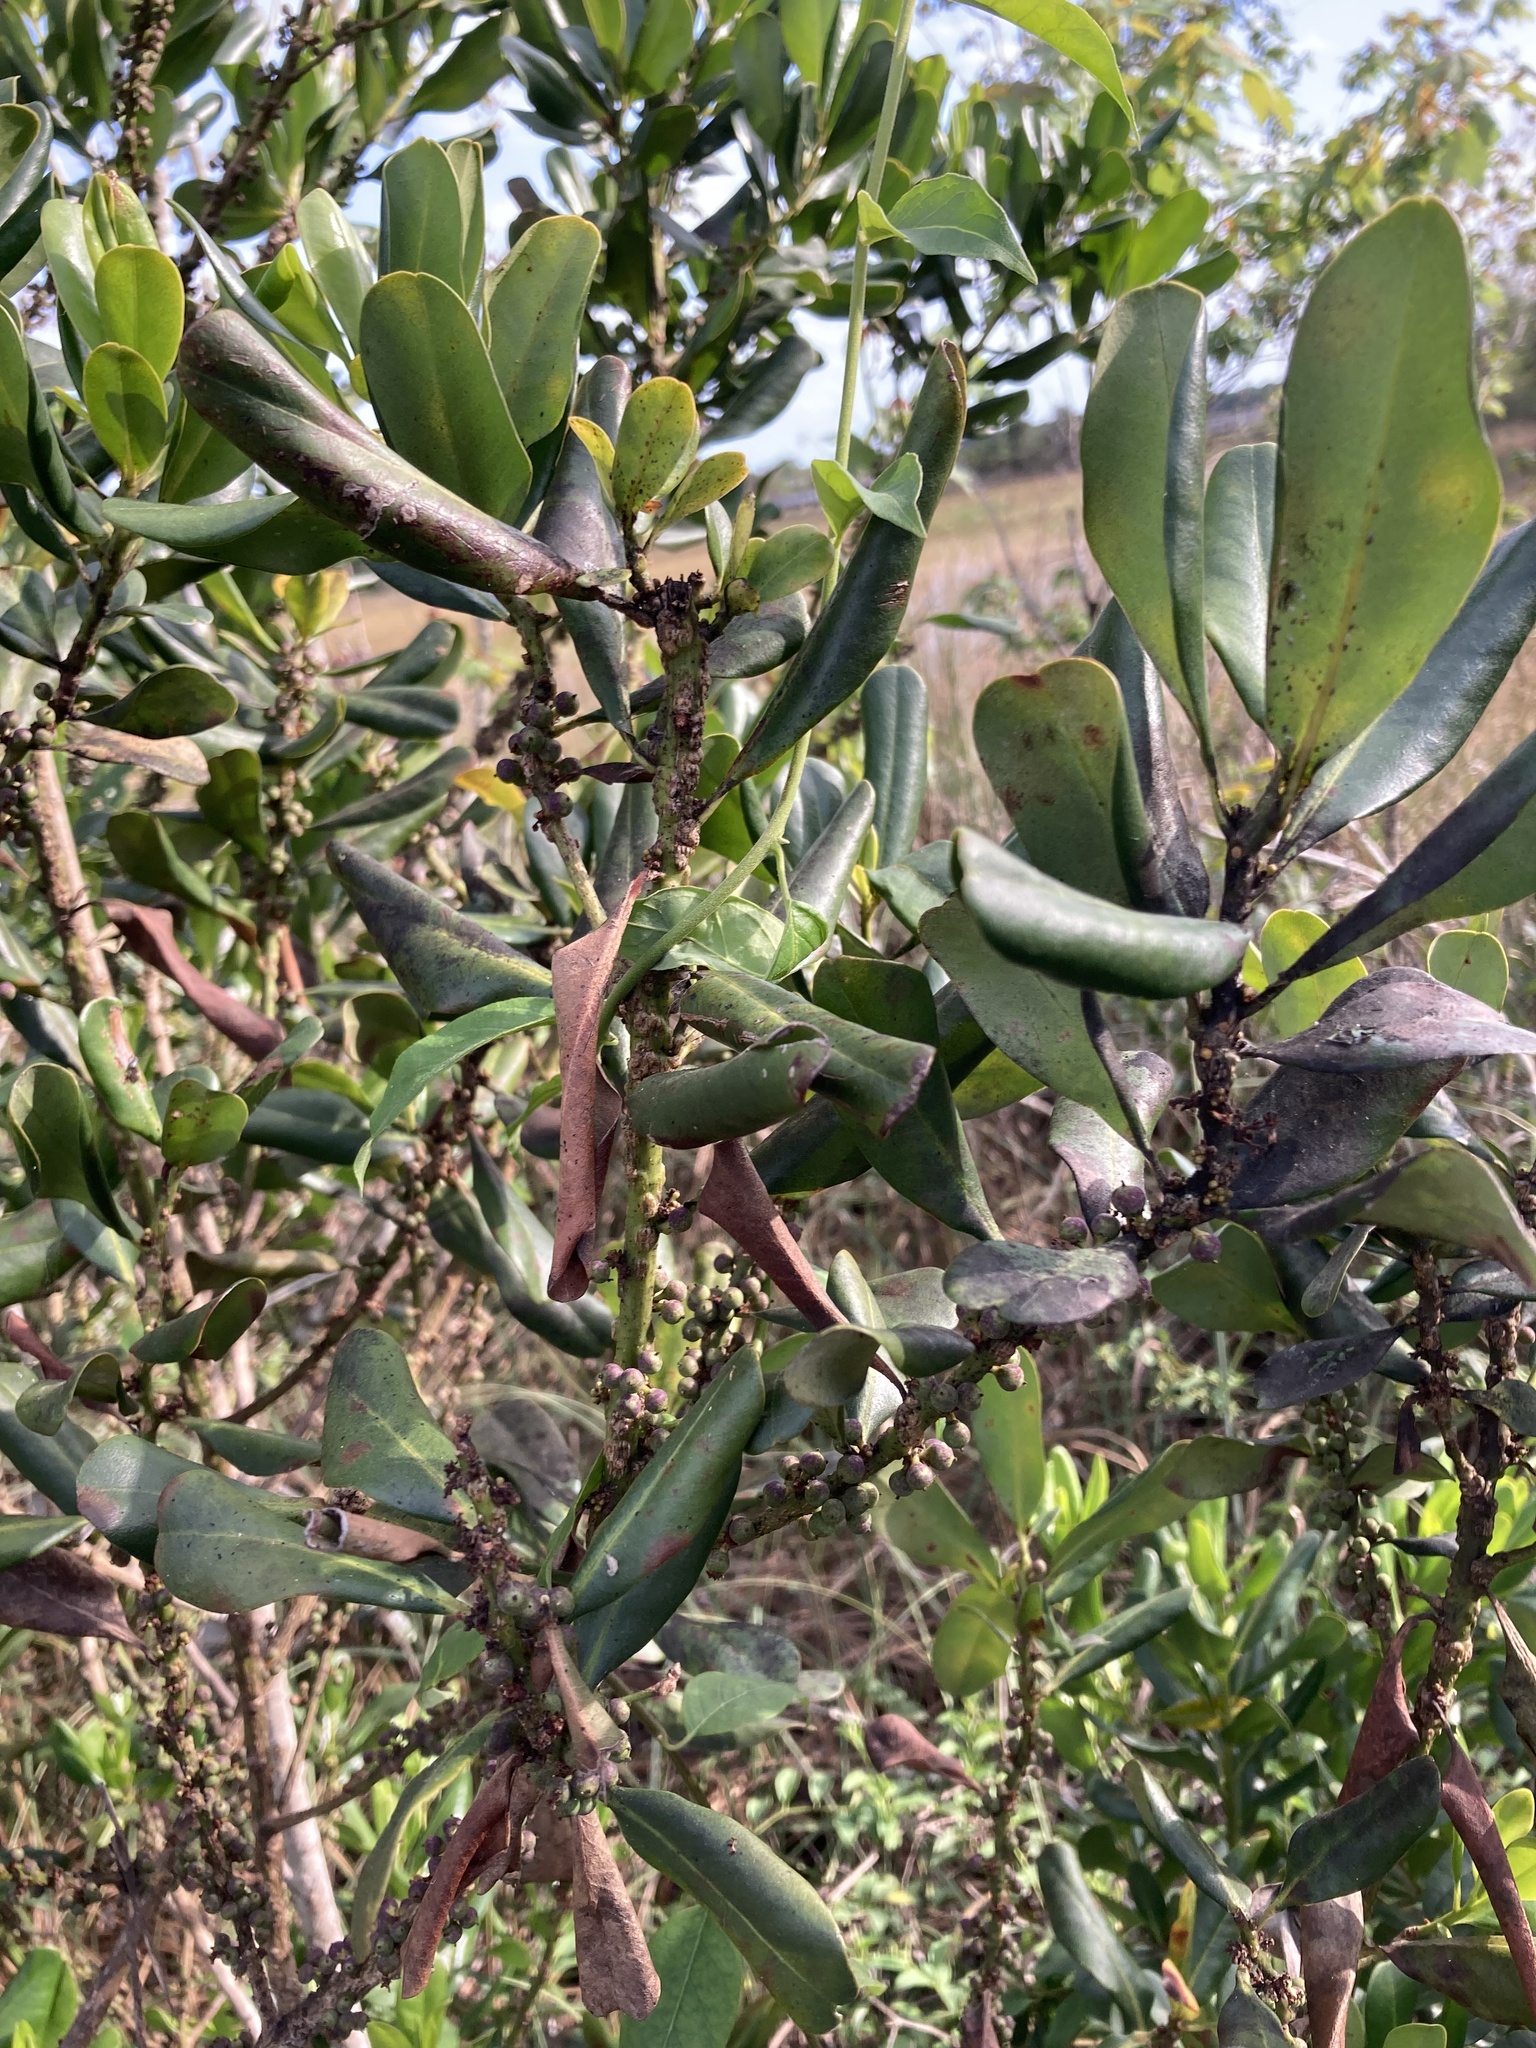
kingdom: Plantae
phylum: Tracheophyta
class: Magnoliopsida
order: Ericales
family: Primulaceae
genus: Myrsine
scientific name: Myrsine floridana
